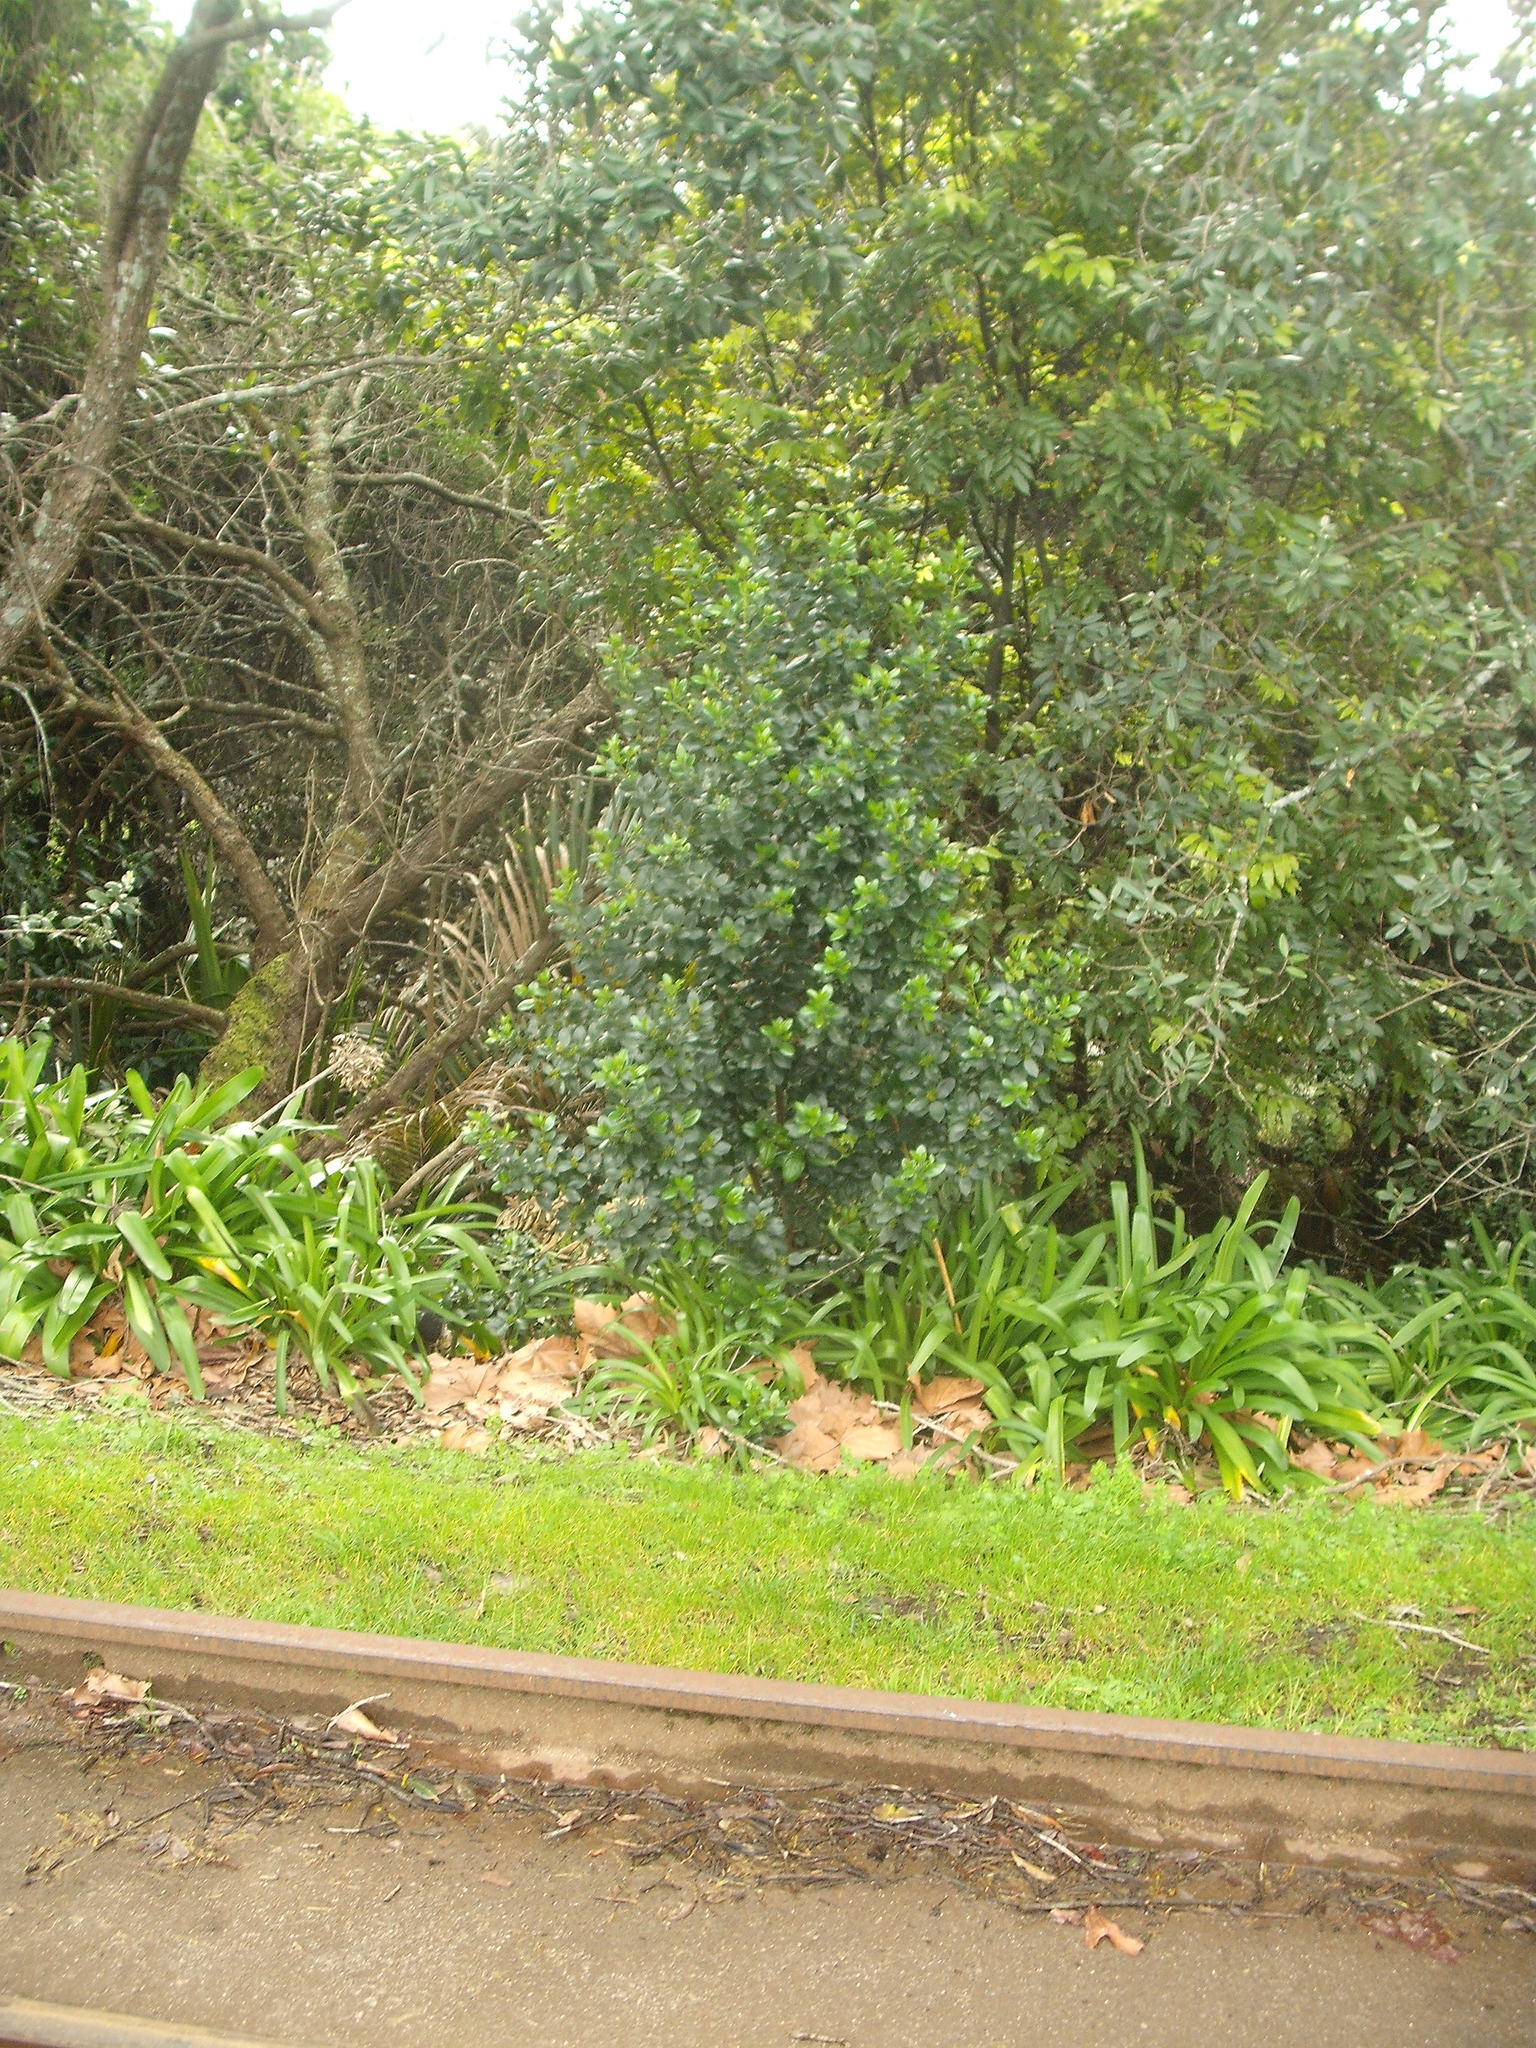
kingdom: Plantae
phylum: Tracheophyta
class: Magnoliopsida
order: Rosales
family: Rhamnaceae
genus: Rhamnus
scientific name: Rhamnus alaternus
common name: Mediterranean buckthorn
